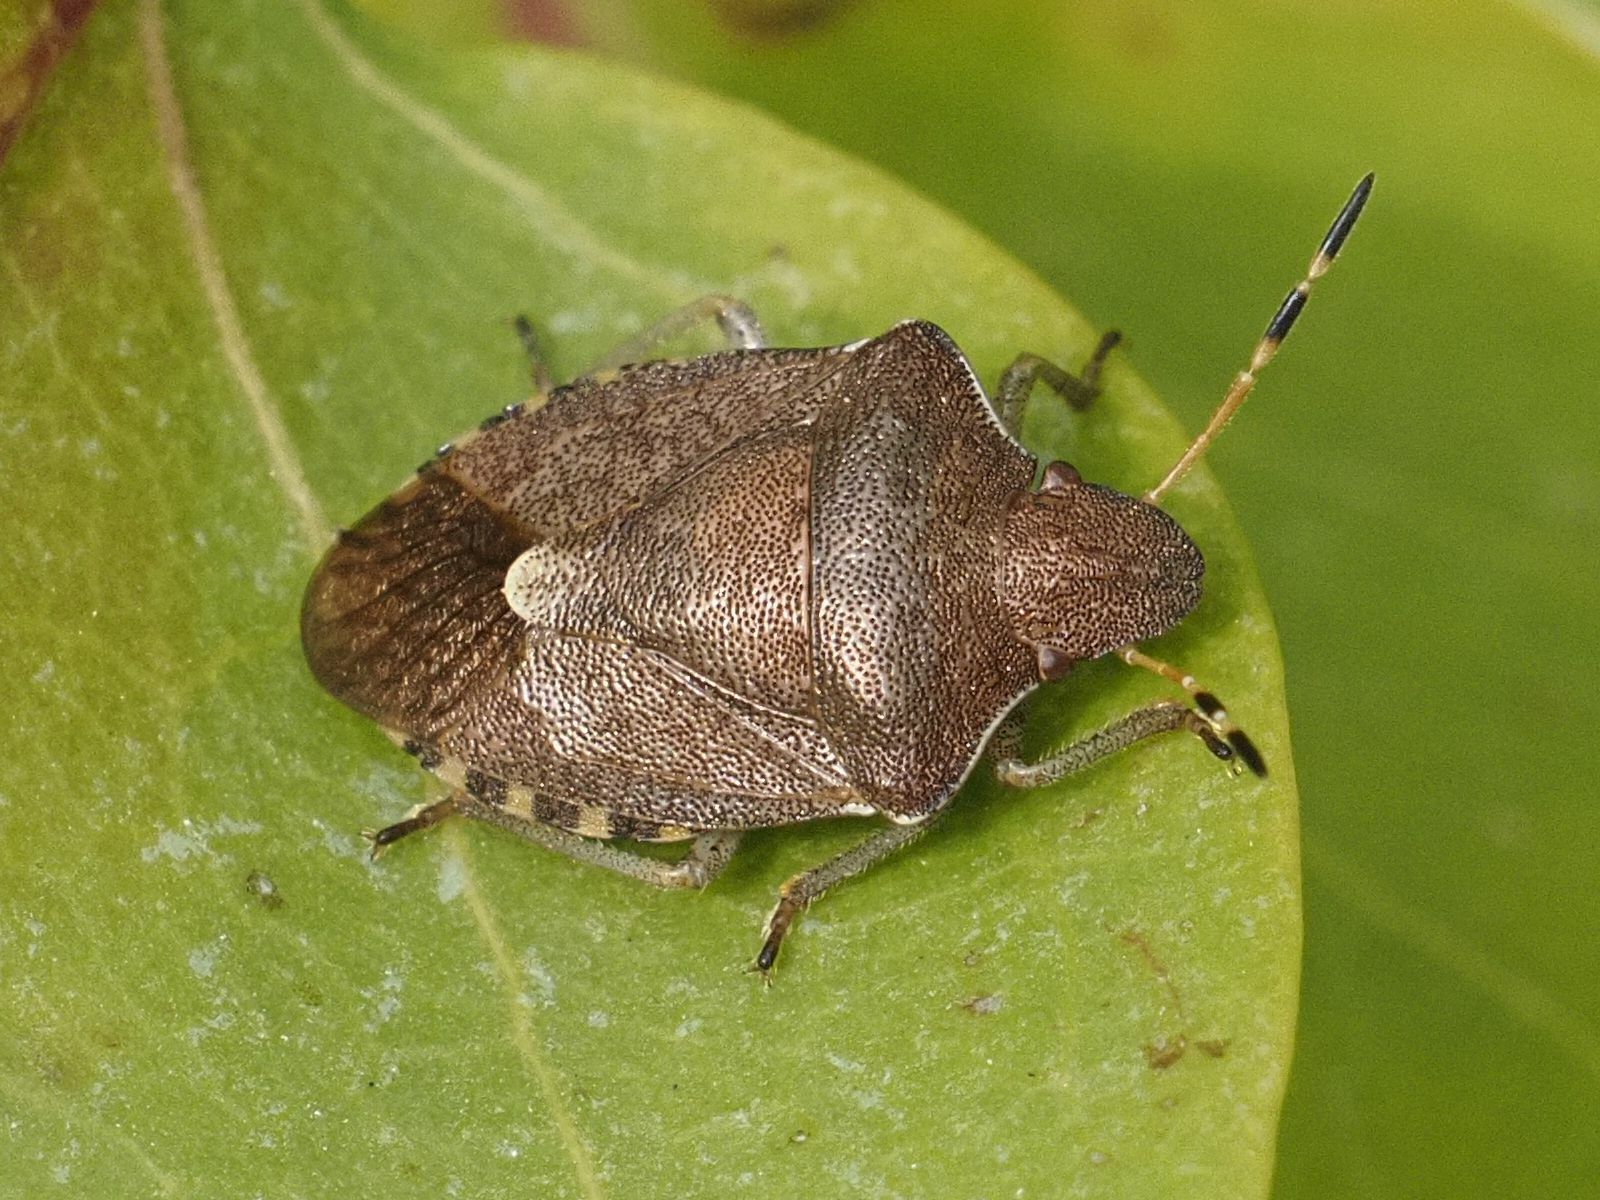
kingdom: Animalia
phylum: Arthropoda
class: Insecta
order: Hemiptera
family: Pentatomidae
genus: Holcostethus
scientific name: Holcostethus strictus
